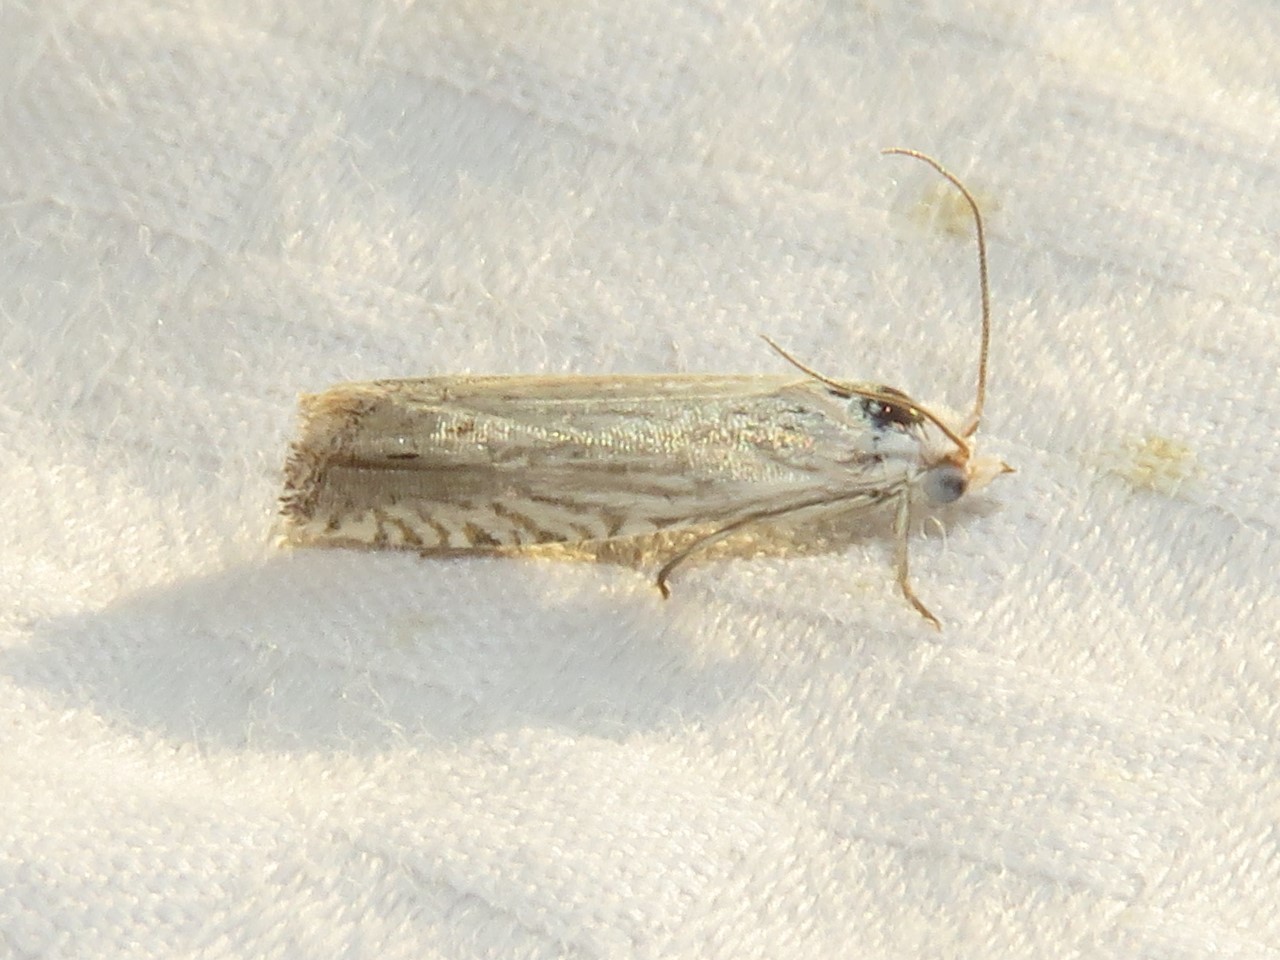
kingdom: Animalia
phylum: Arthropoda
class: Insecta
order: Lepidoptera
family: Tortricidae
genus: Pelochrista
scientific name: Pelochrista argentialbana
